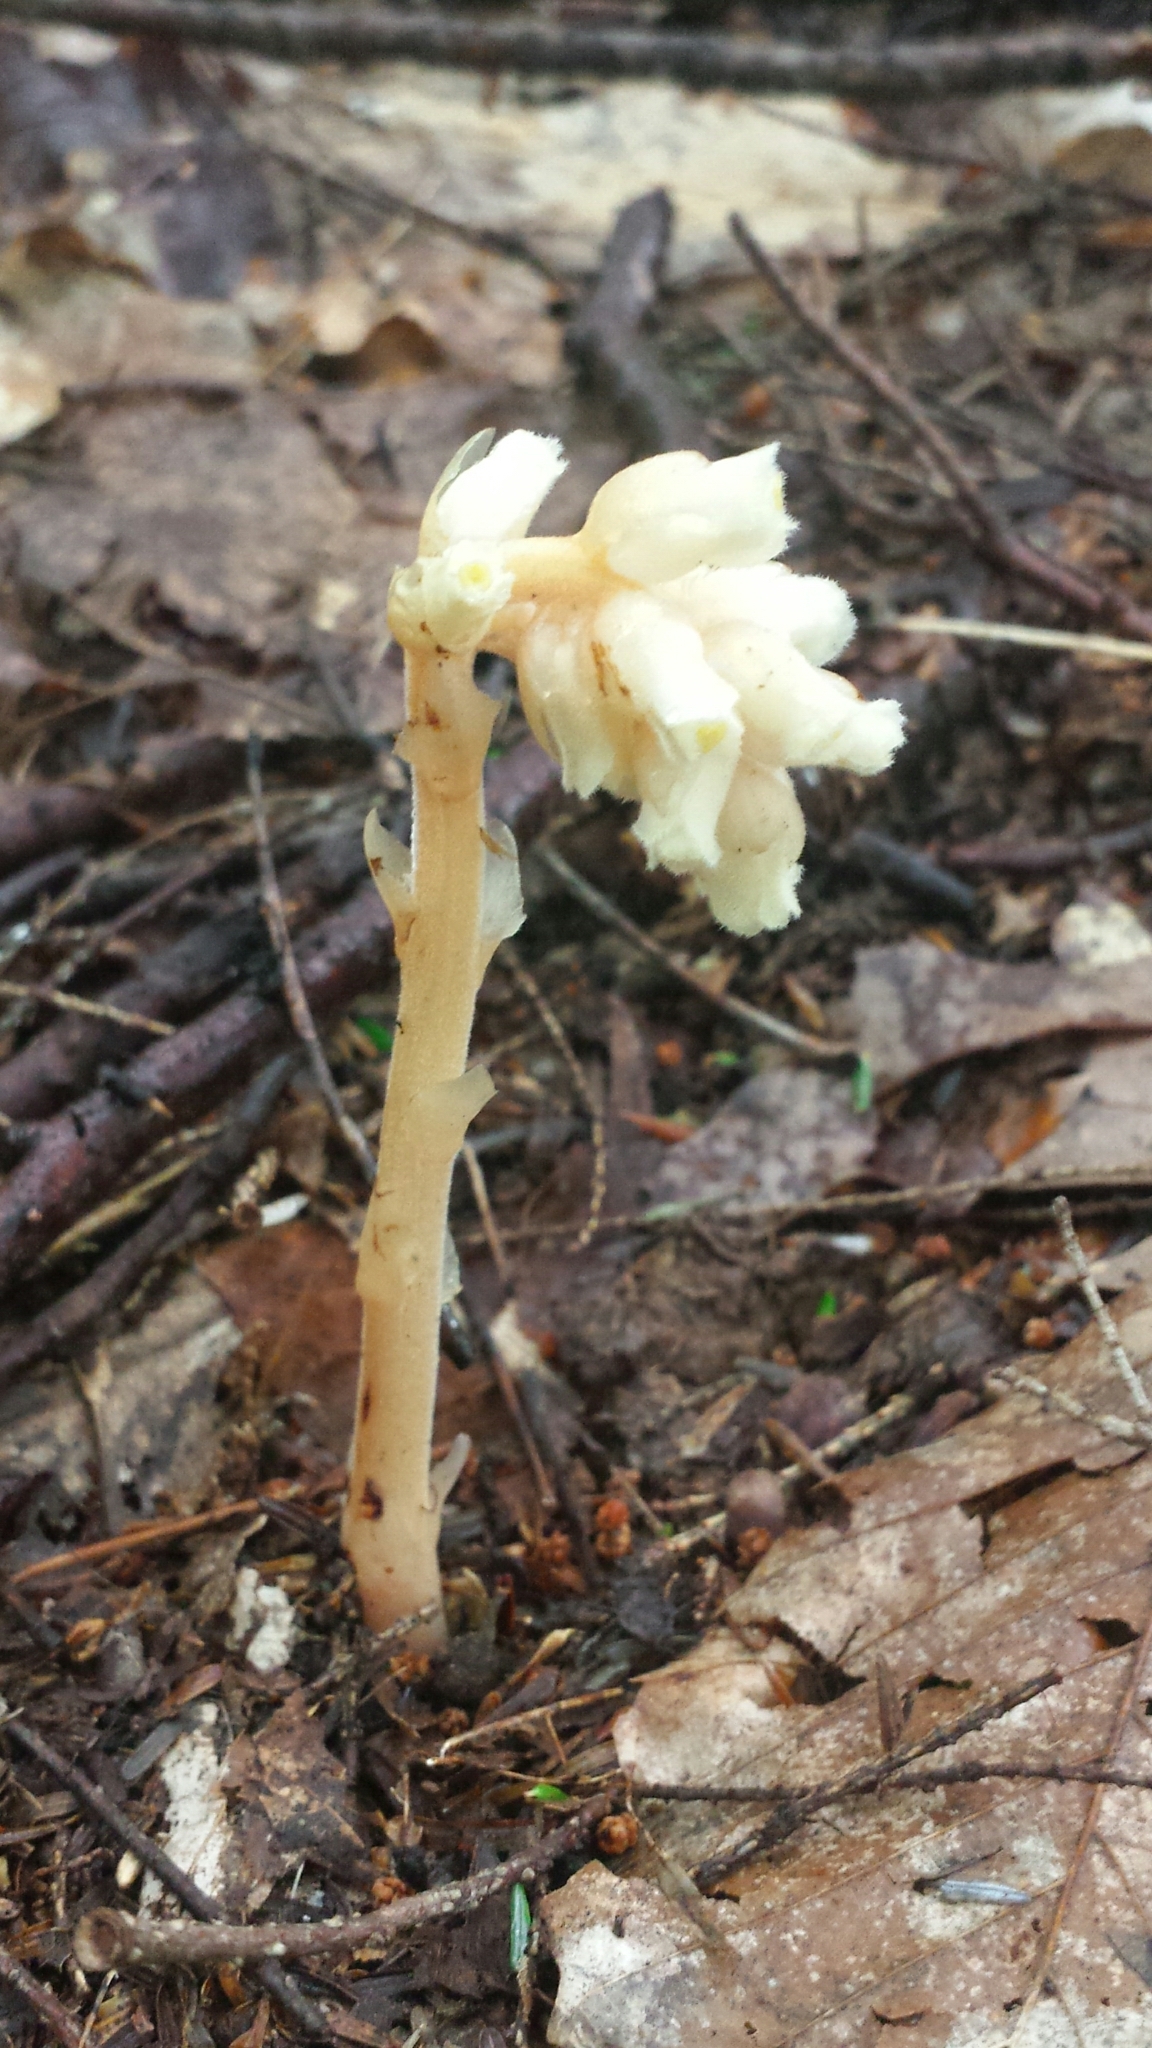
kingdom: Plantae
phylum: Tracheophyta
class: Magnoliopsida
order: Ericales
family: Ericaceae
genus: Hypopitys
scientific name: Hypopitys monotropa
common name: Yellow bird's-nest
